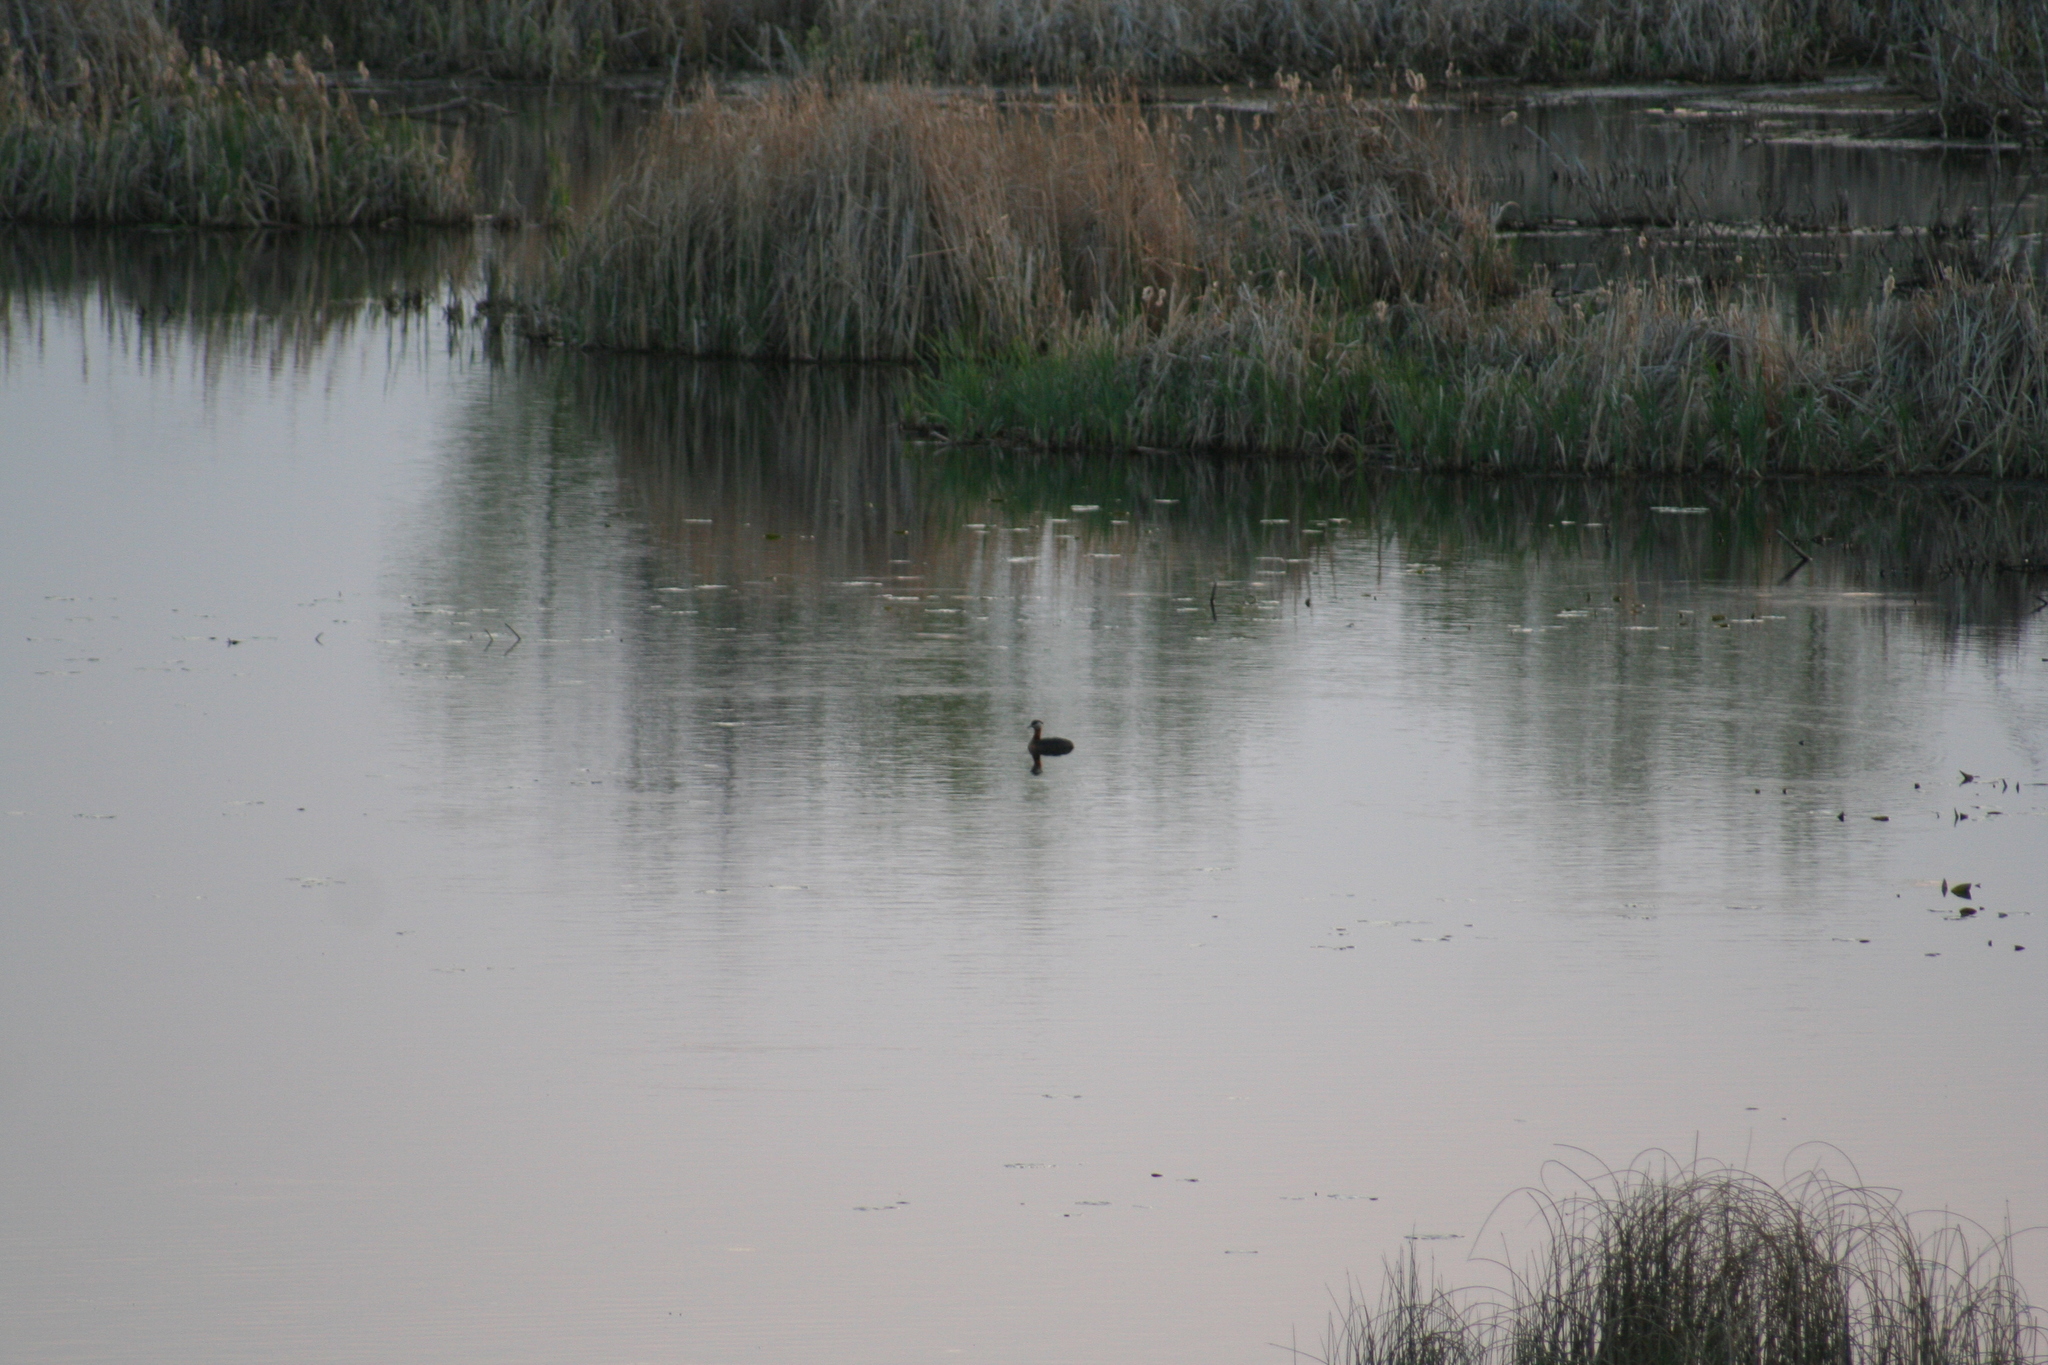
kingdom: Animalia
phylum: Chordata
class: Aves
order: Podicipediformes
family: Podicipedidae
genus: Podiceps
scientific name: Podiceps grisegena
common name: Red-necked grebe
